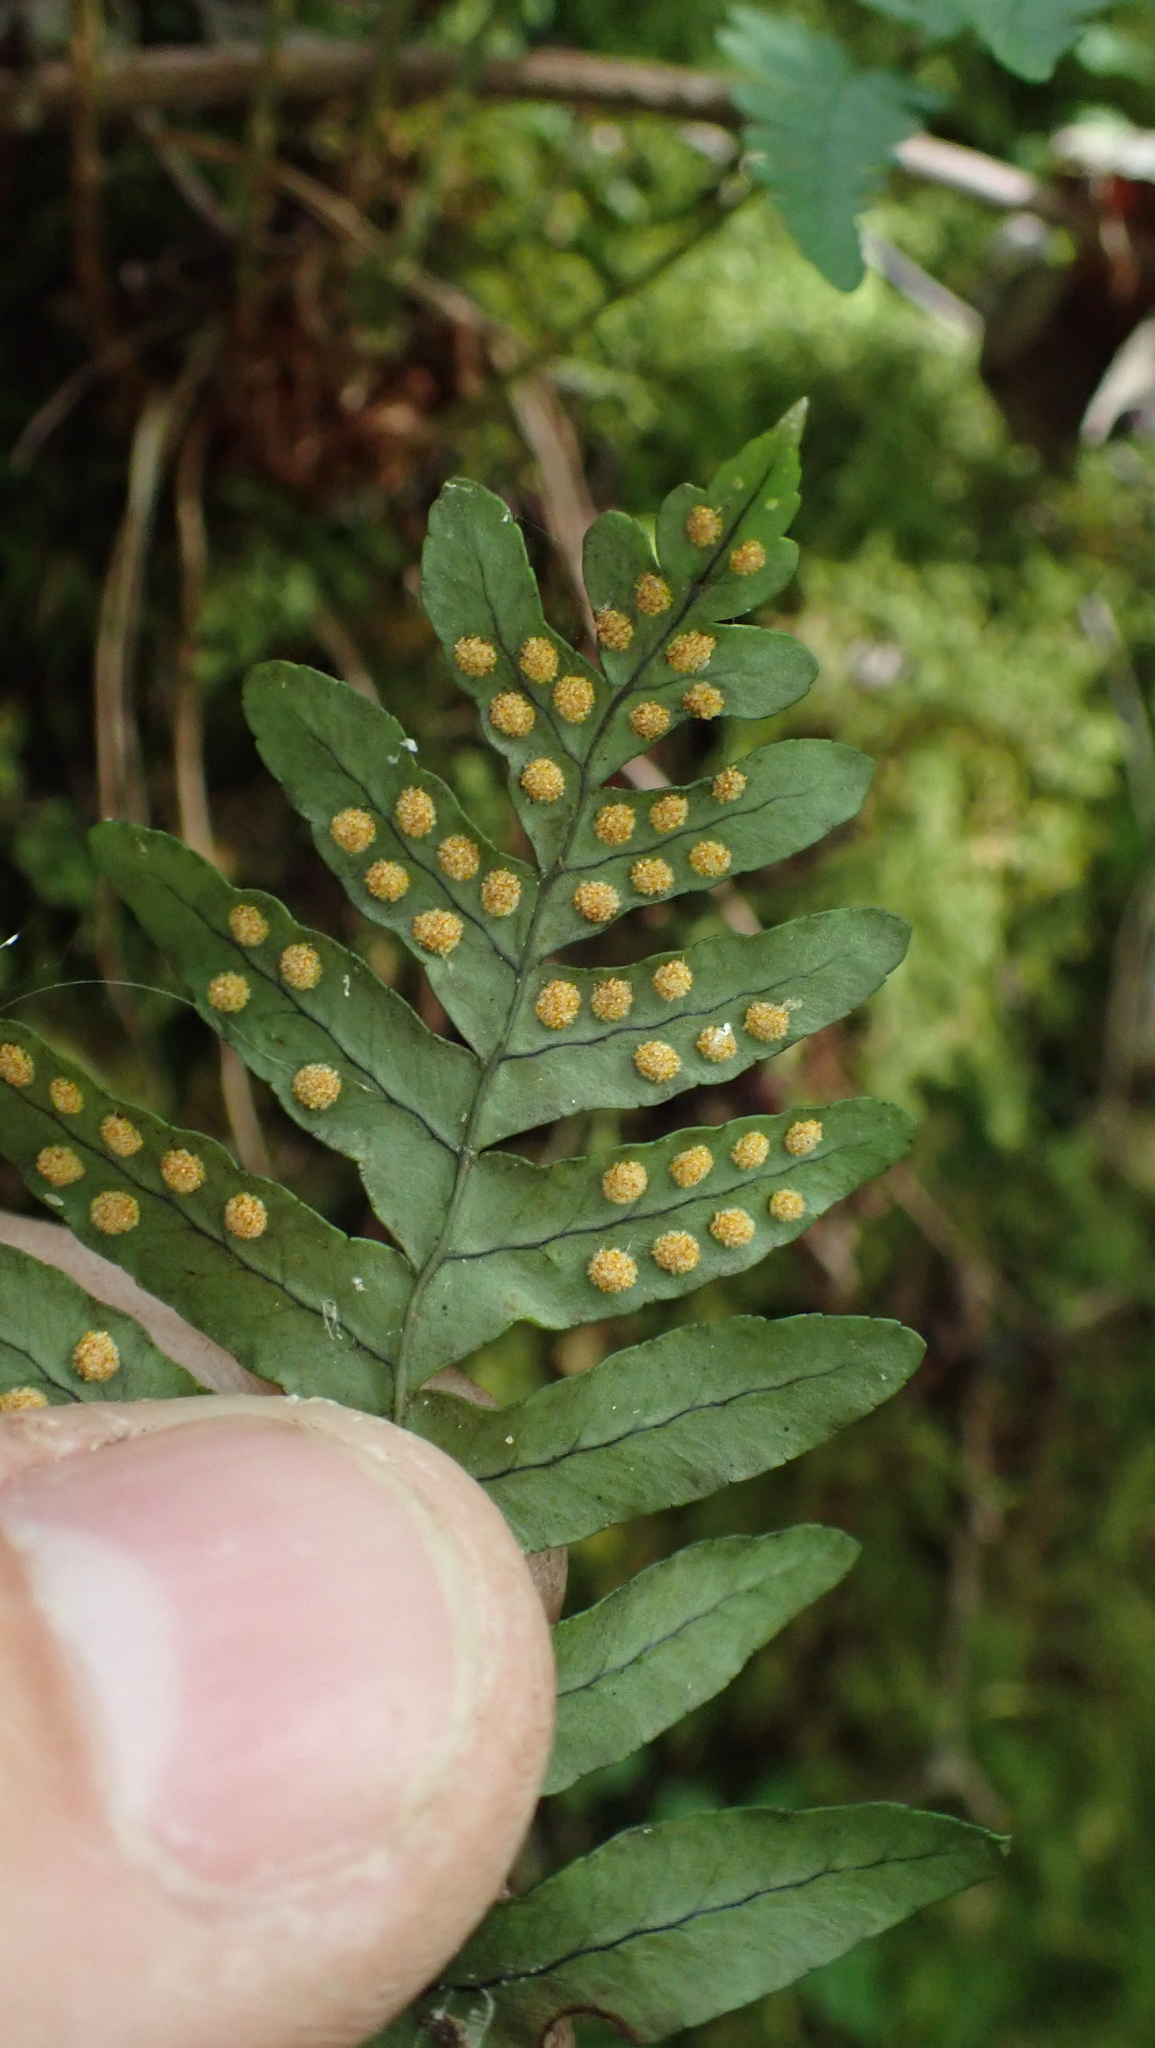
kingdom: Plantae
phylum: Tracheophyta
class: Polypodiopsida
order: Polypodiales
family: Polypodiaceae
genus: Polypodium
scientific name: Polypodium virginianum
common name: American wall fern
